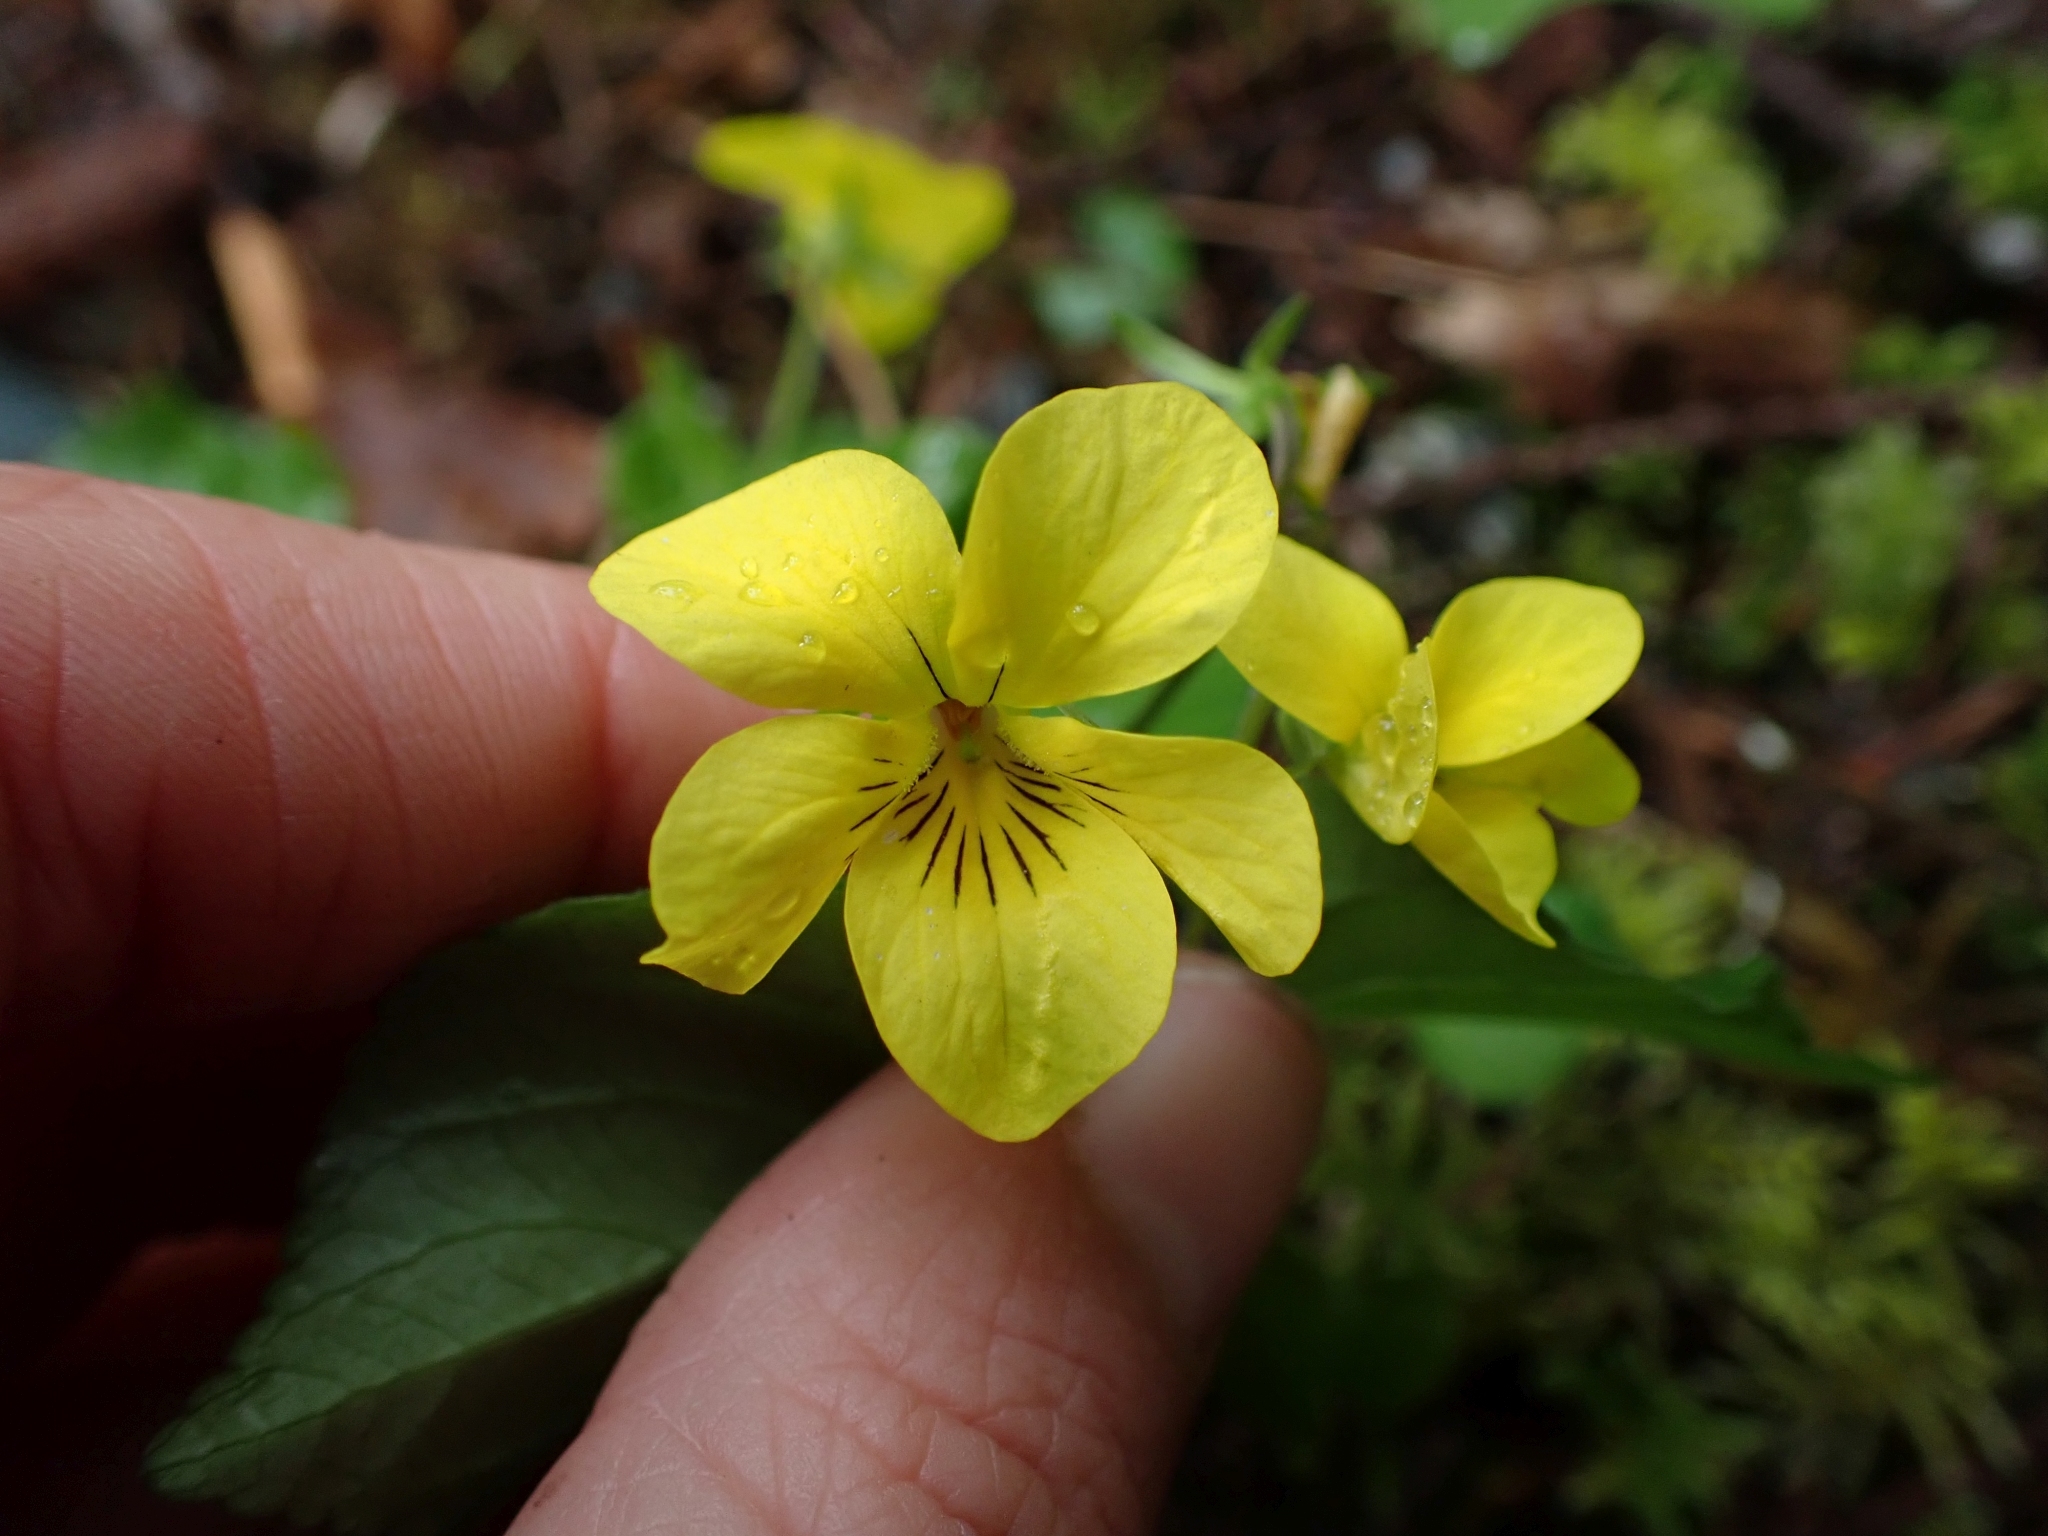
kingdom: Plantae
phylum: Tracheophyta
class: Magnoliopsida
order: Malpighiales
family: Violaceae
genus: Viola
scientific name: Viola glabella
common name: Stream violet
